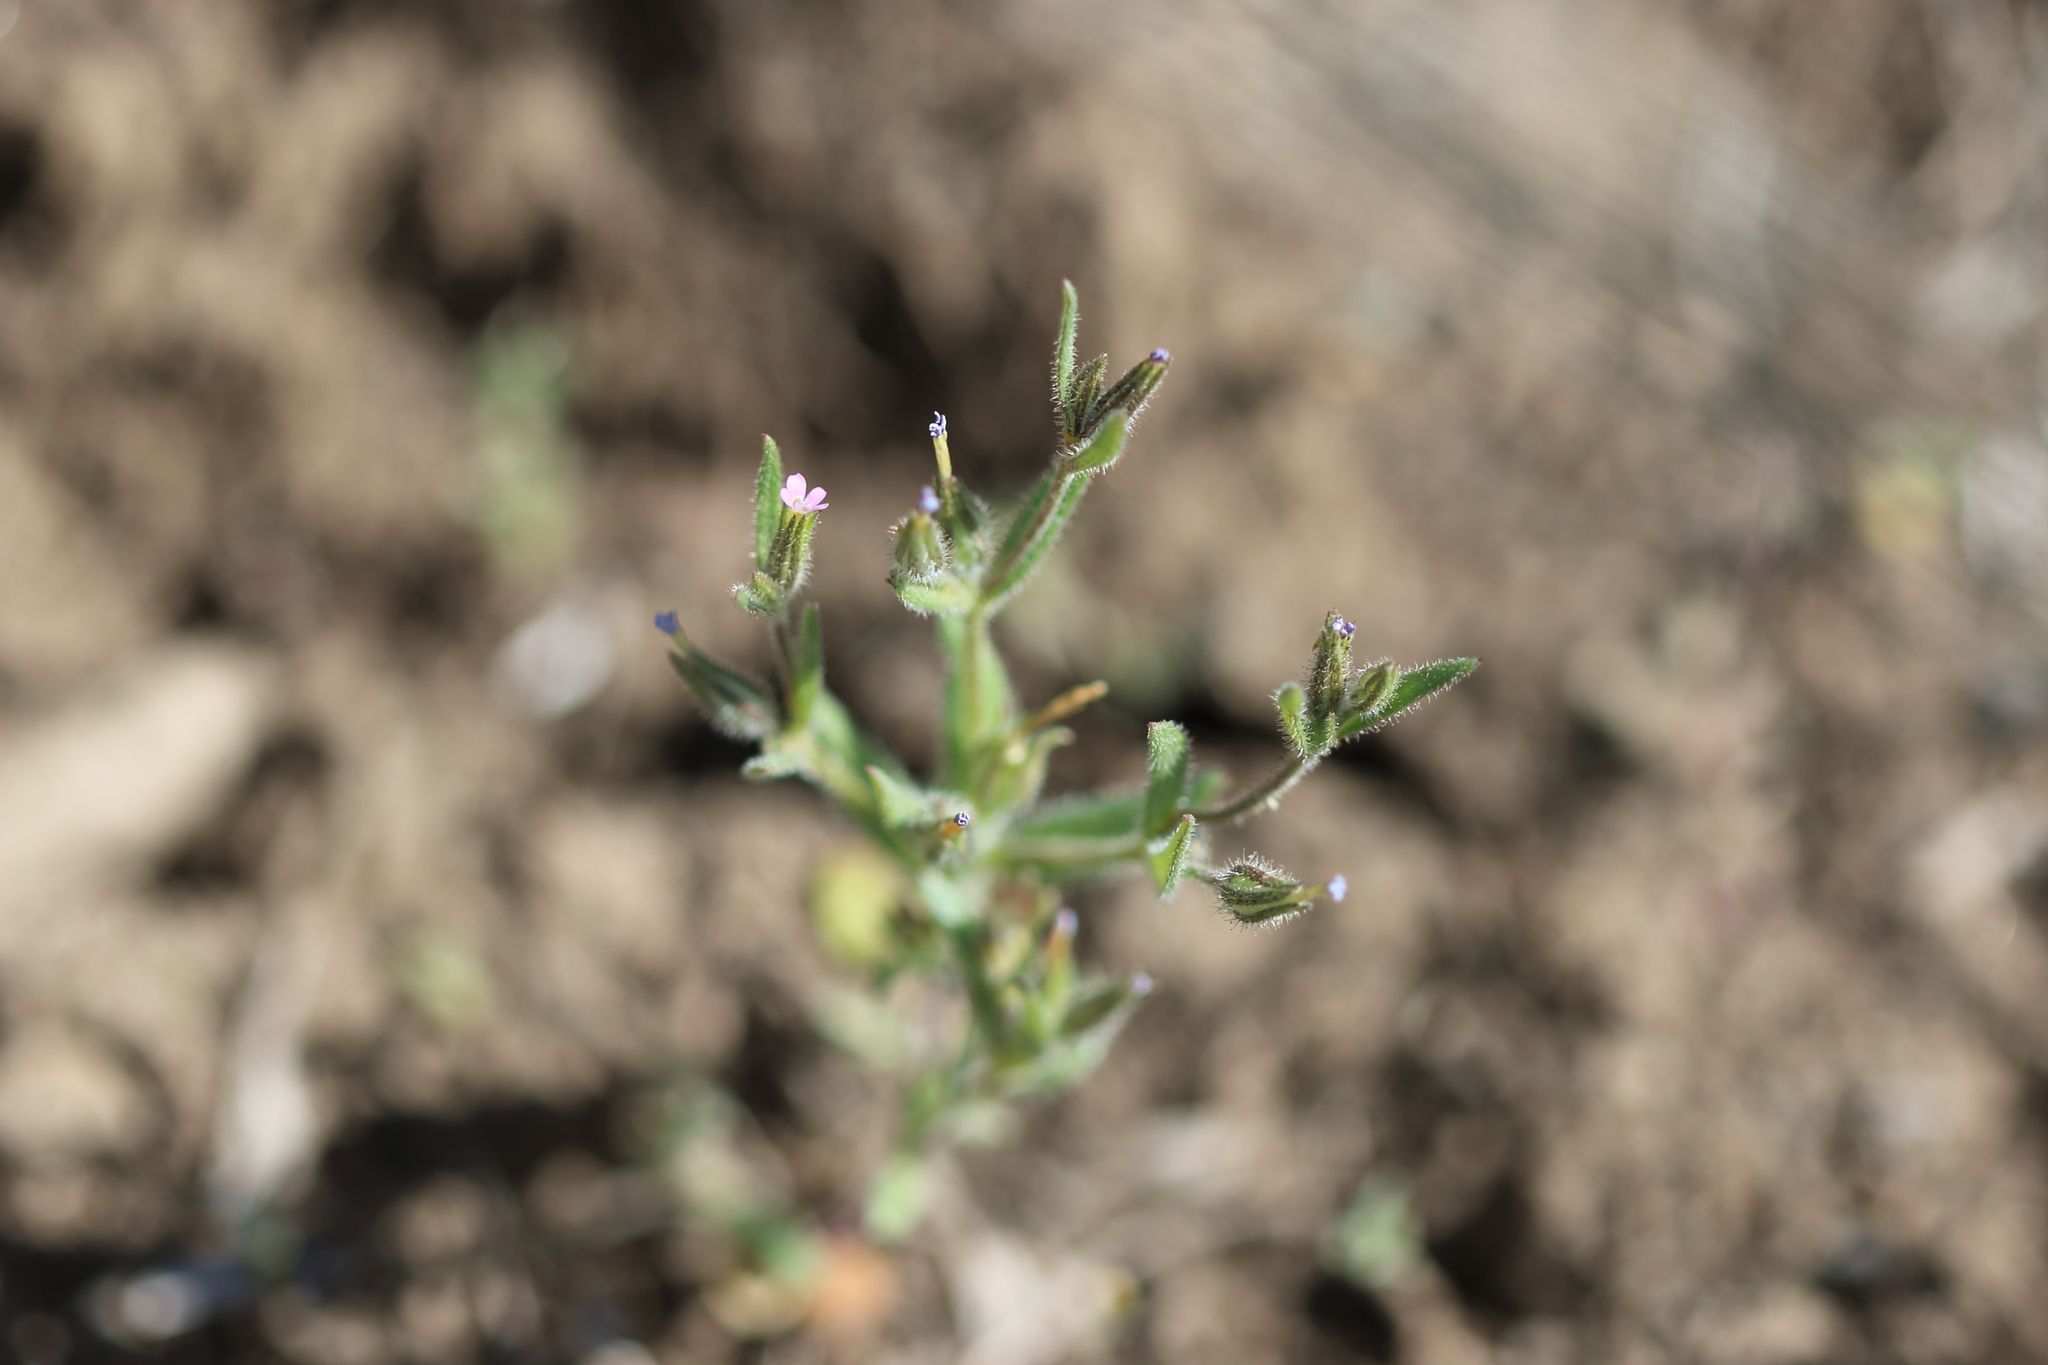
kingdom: Plantae
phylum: Tracheophyta
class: Magnoliopsida
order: Ericales
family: Polemoniaceae
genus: Phlox
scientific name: Phlox gracilis
